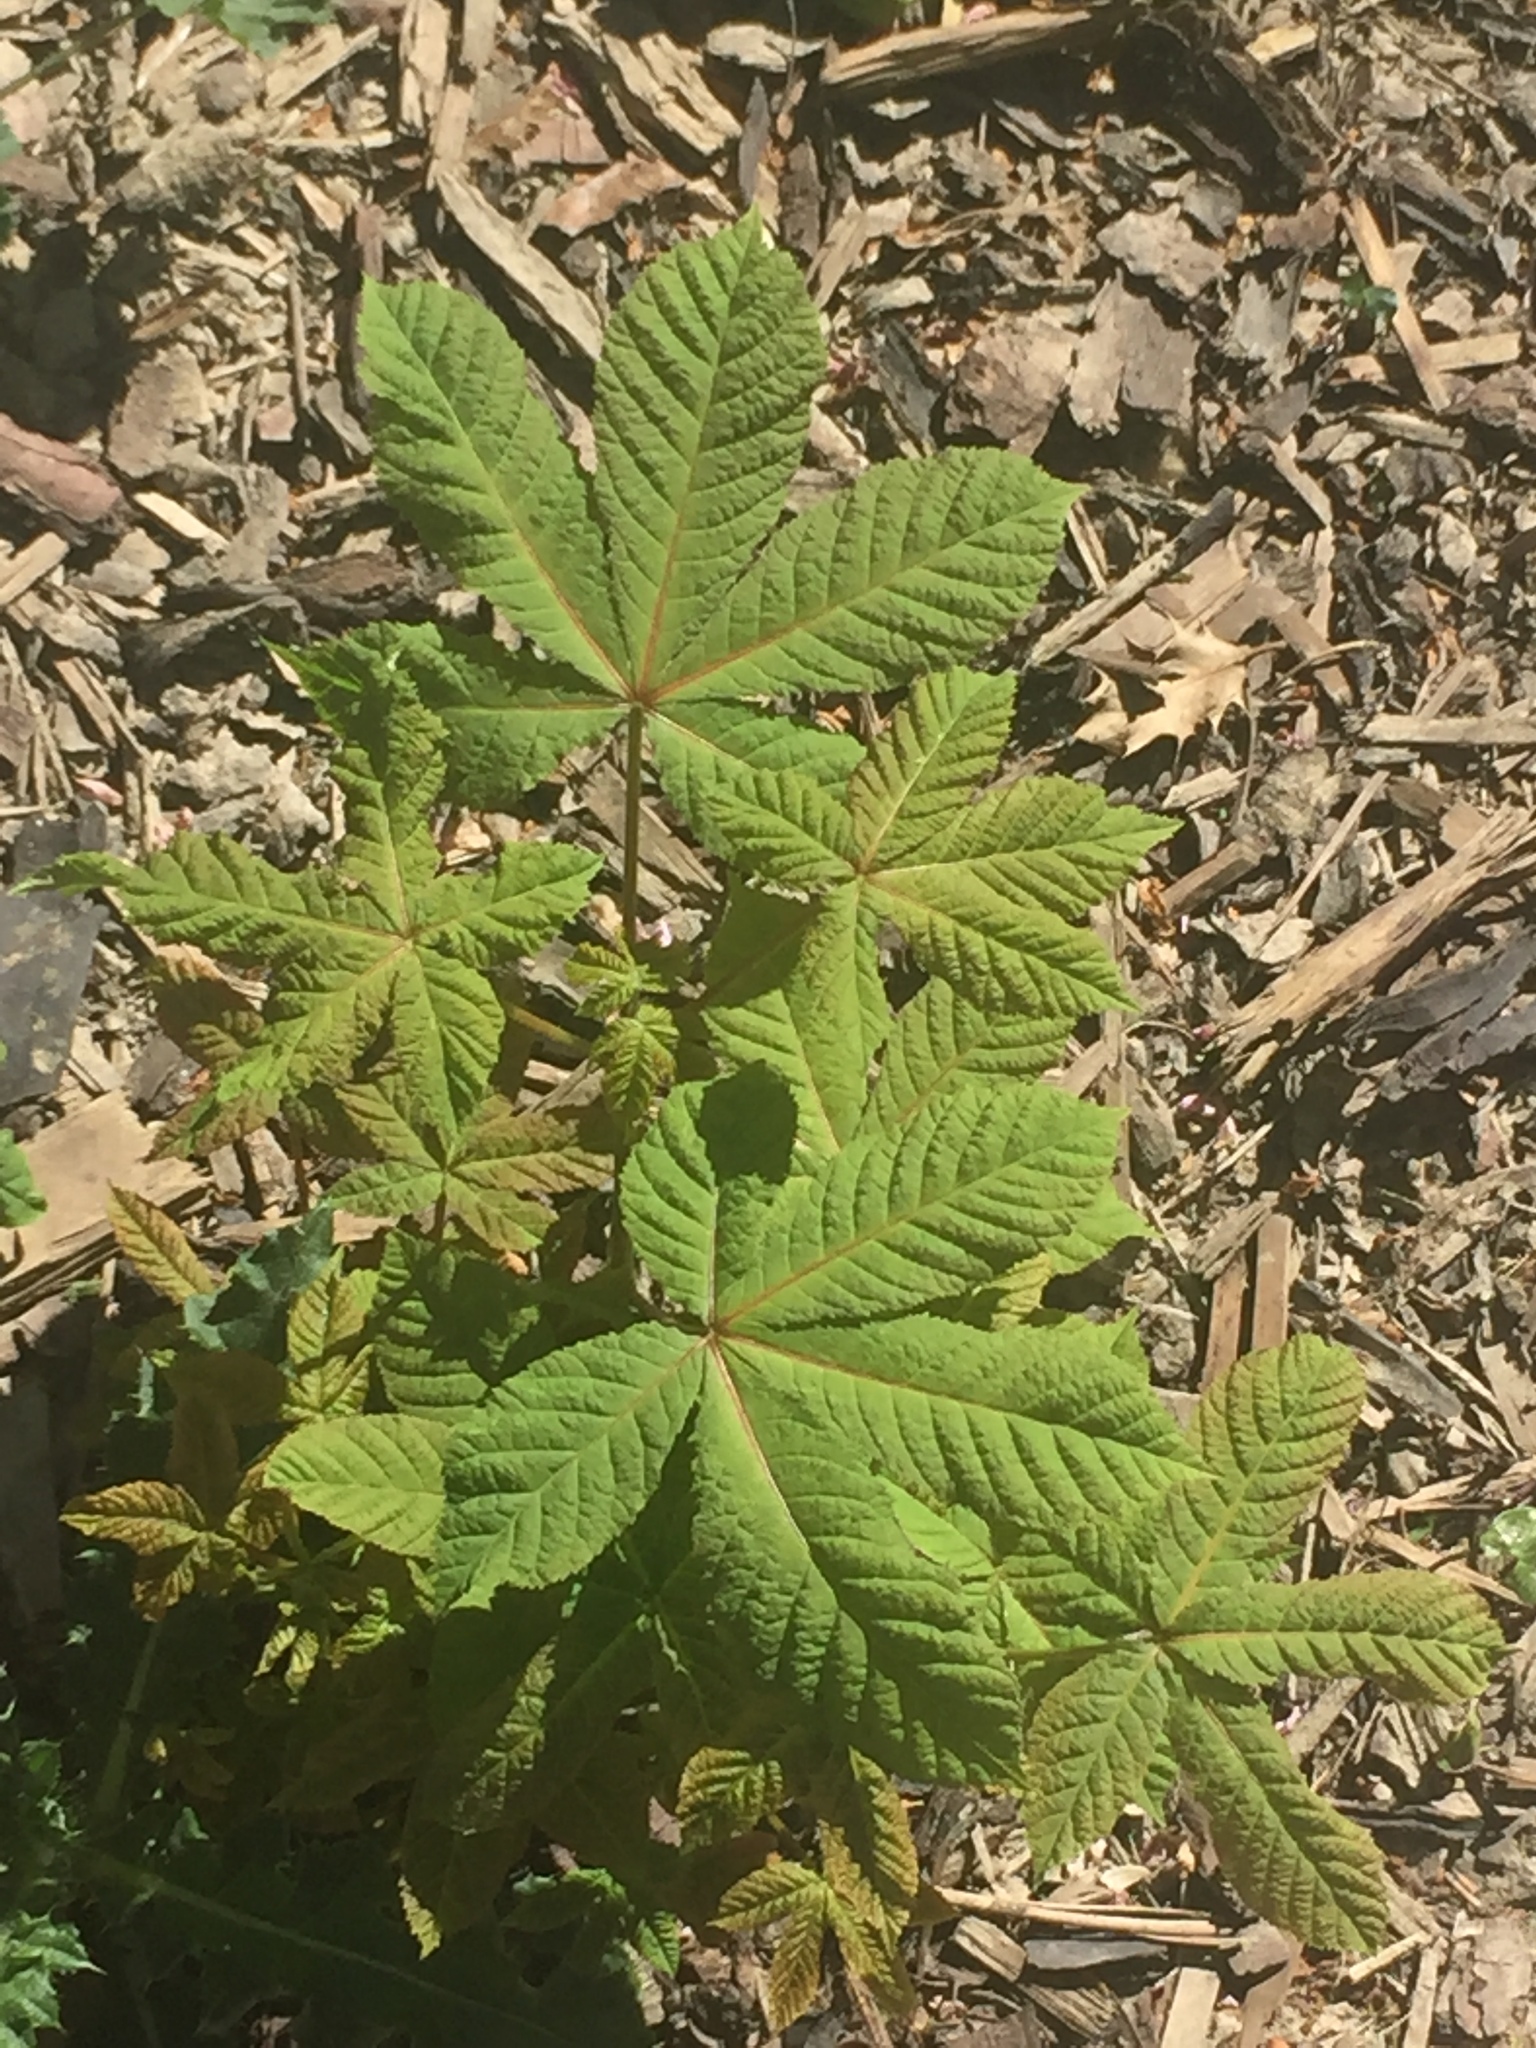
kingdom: Plantae
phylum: Tracheophyta
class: Magnoliopsida
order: Sapindales
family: Sapindaceae
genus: Aesculus
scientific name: Aesculus hippocastanum
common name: Horse-chestnut
